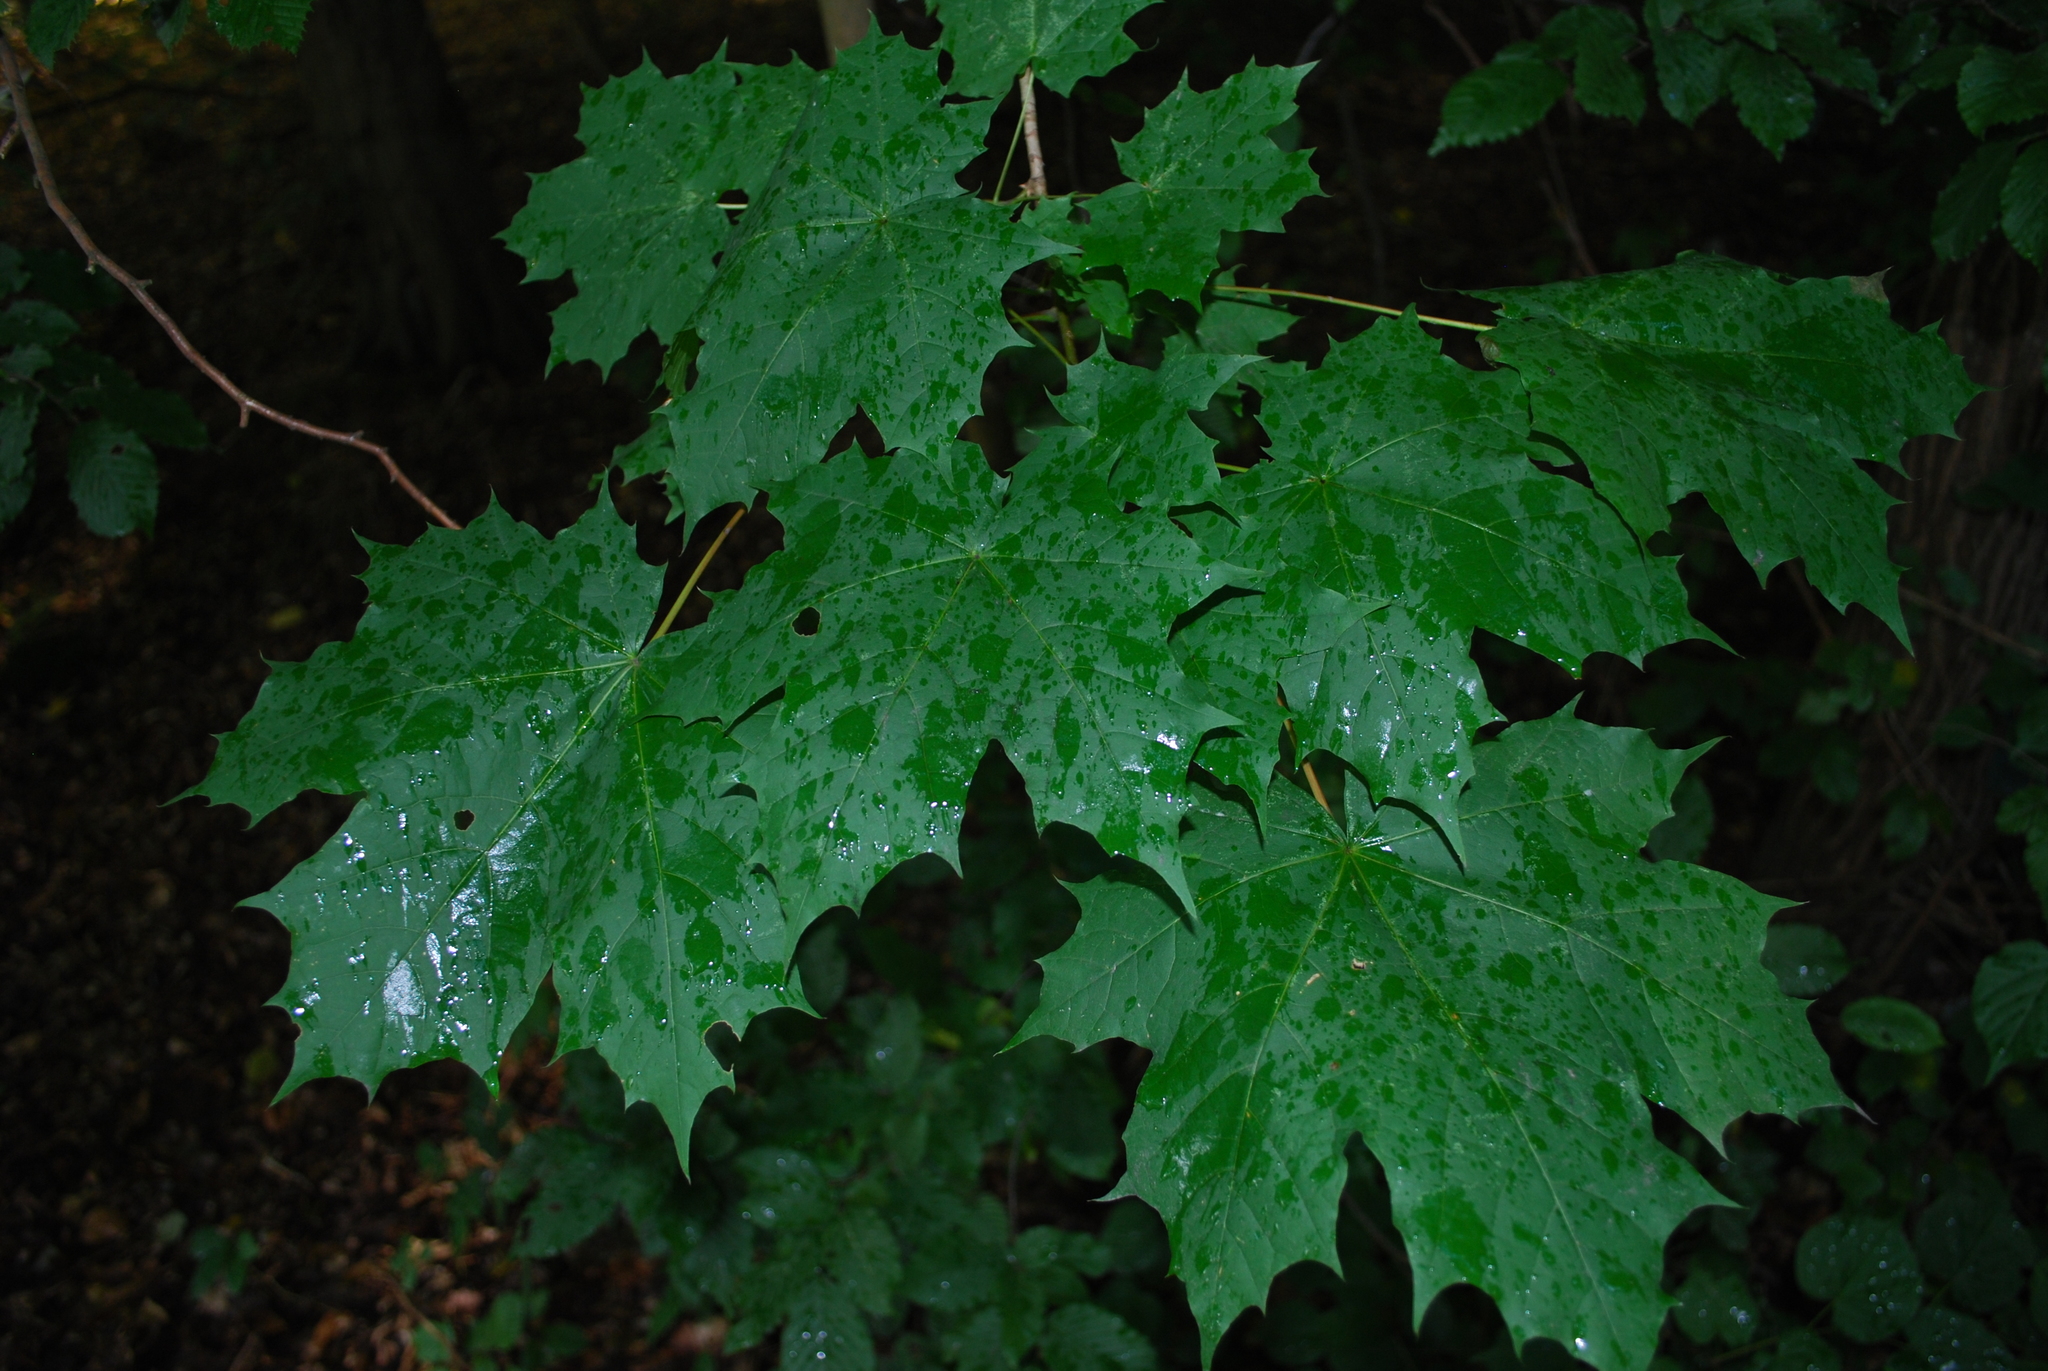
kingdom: Plantae
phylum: Tracheophyta
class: Magnoliopsida
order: Sapindales
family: Sapindaceae
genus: Acer
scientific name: Acer platanoides
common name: Norway maple
